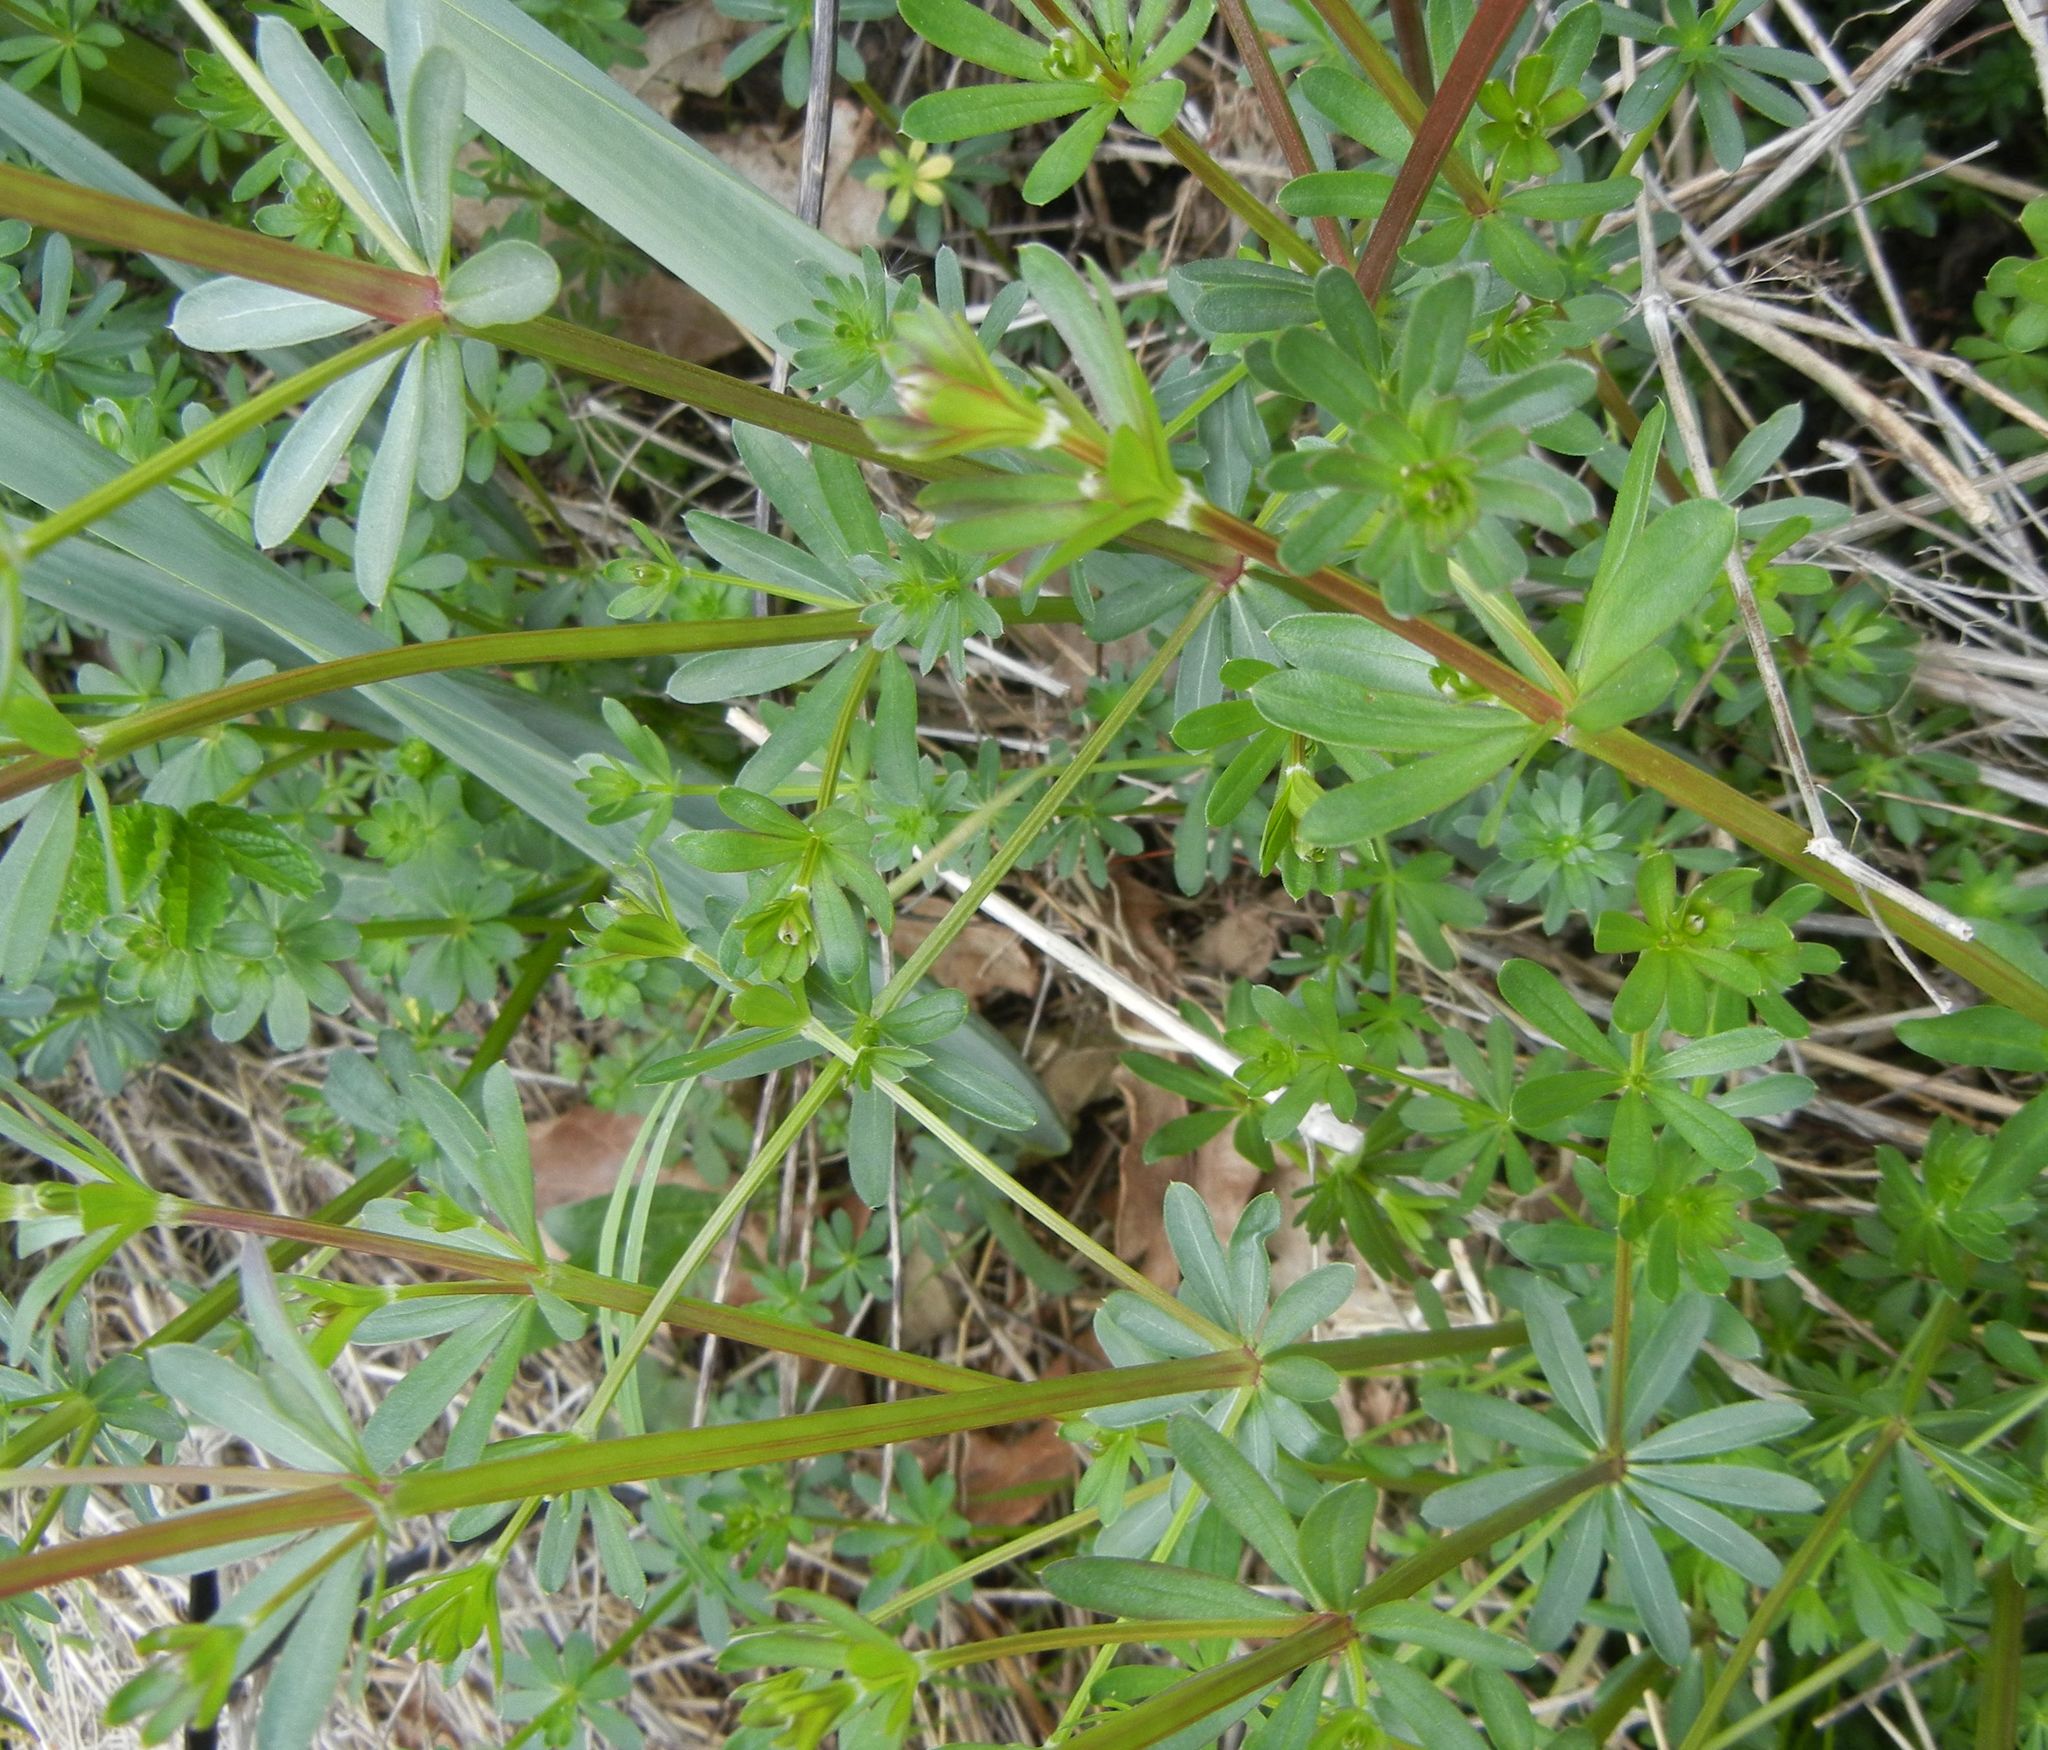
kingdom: Plantae
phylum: Tracheophyta
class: Magnoliopsida
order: Gentianales
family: Rubiaceae
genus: Galium
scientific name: Galium album
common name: White bedstraw
